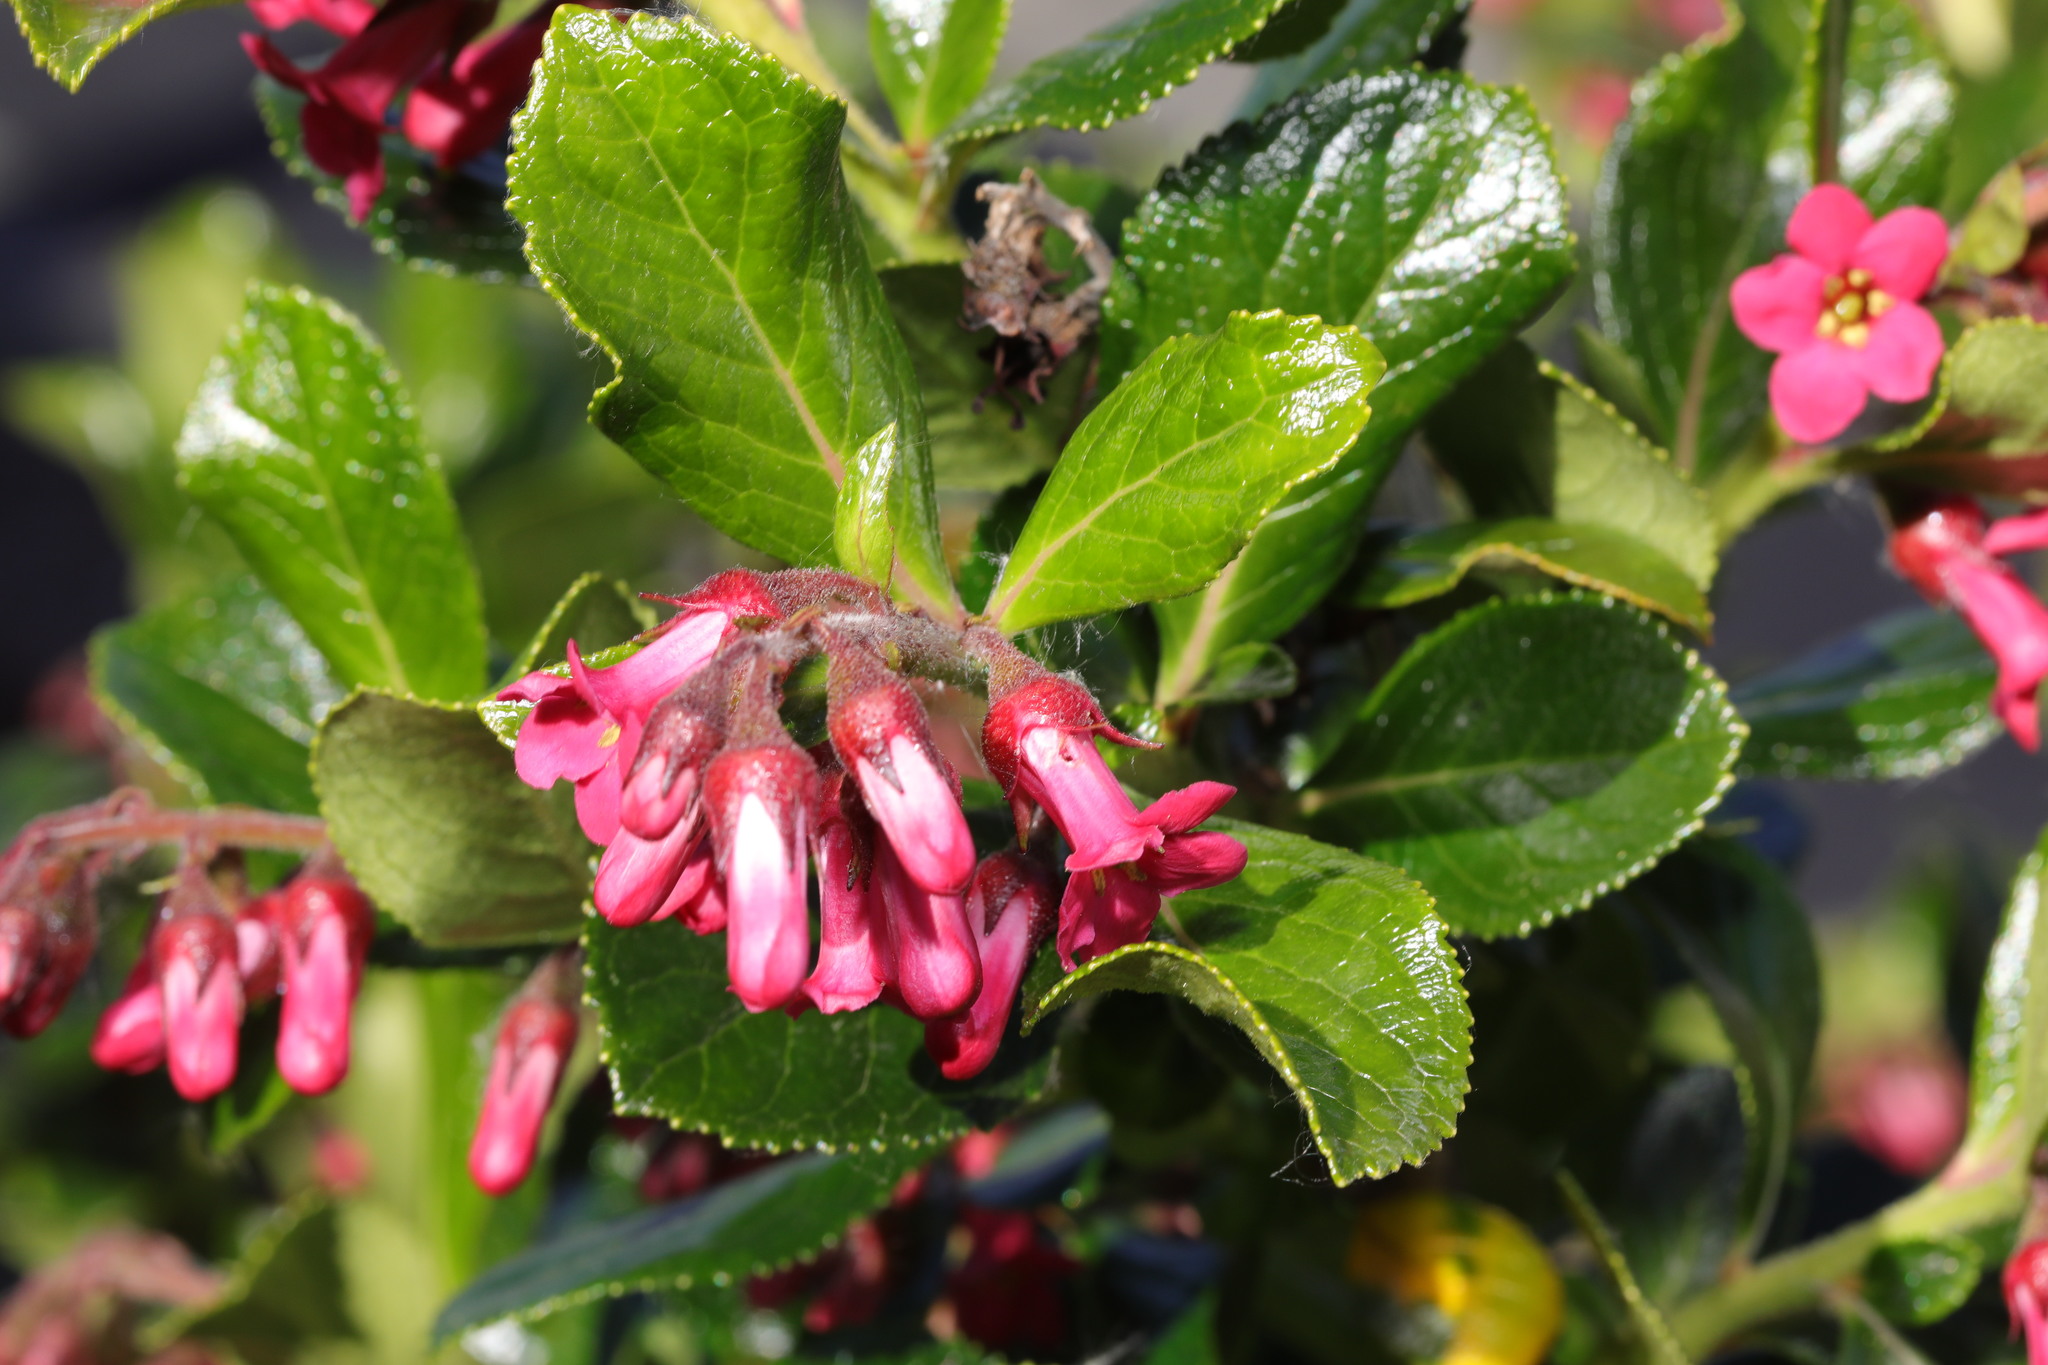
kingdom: Plantae
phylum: Tracheophyta
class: Magnoliopsida
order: Escalloniales
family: Escalloniaceae
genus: Escallonia
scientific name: Escallonia rubra
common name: Redclaws
